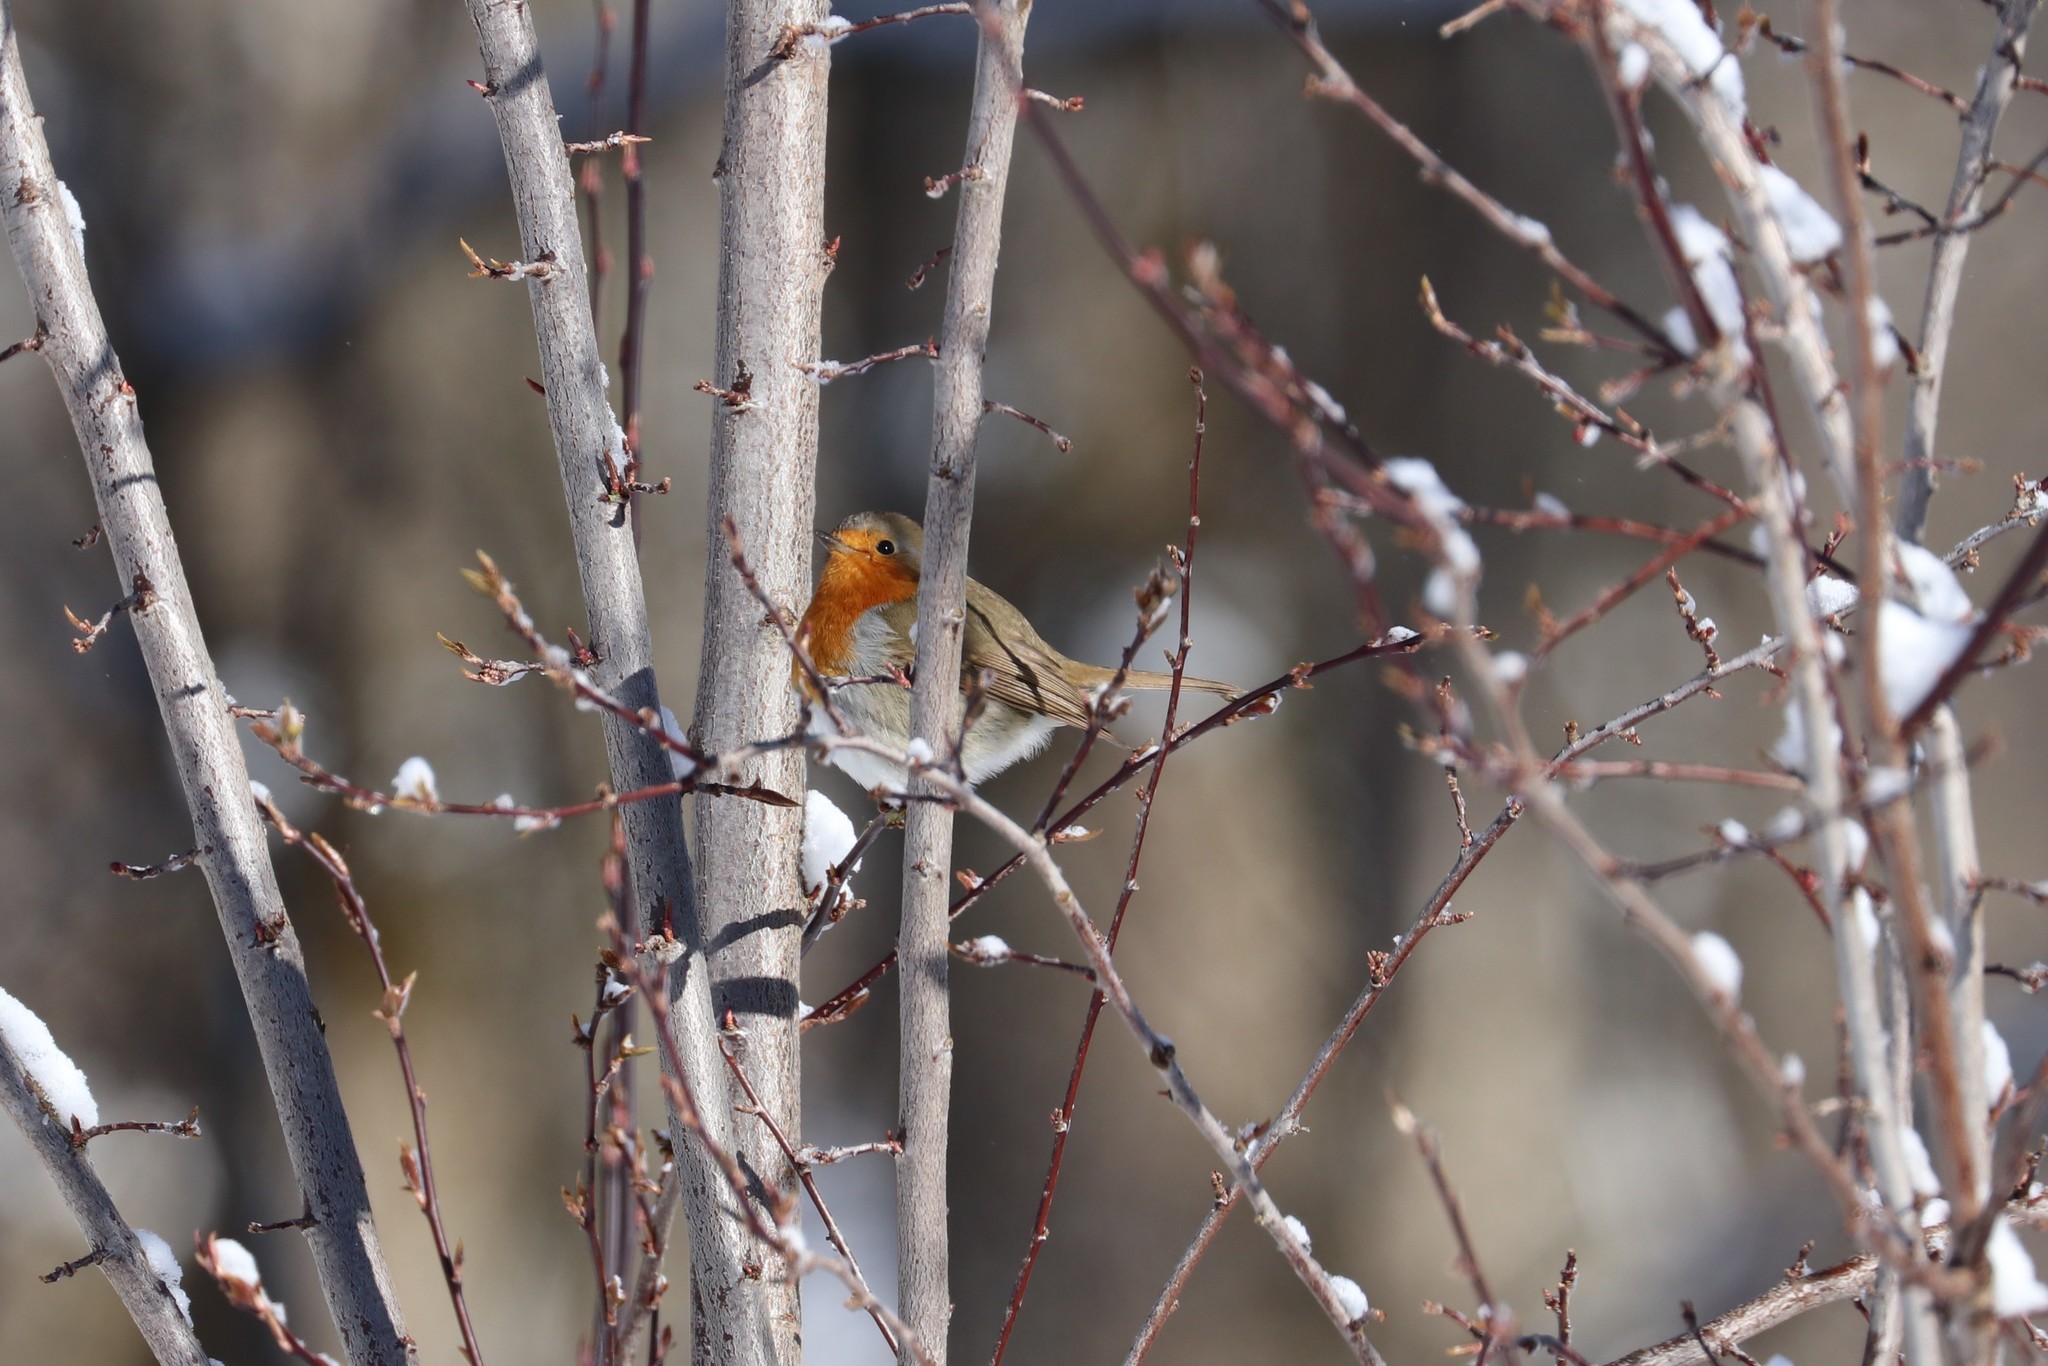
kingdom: Animalia
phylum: Chordata
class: Aves
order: Passeriformes
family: Muscicapidae
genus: Erithacus
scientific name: Erithacus rubecula
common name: European robin
